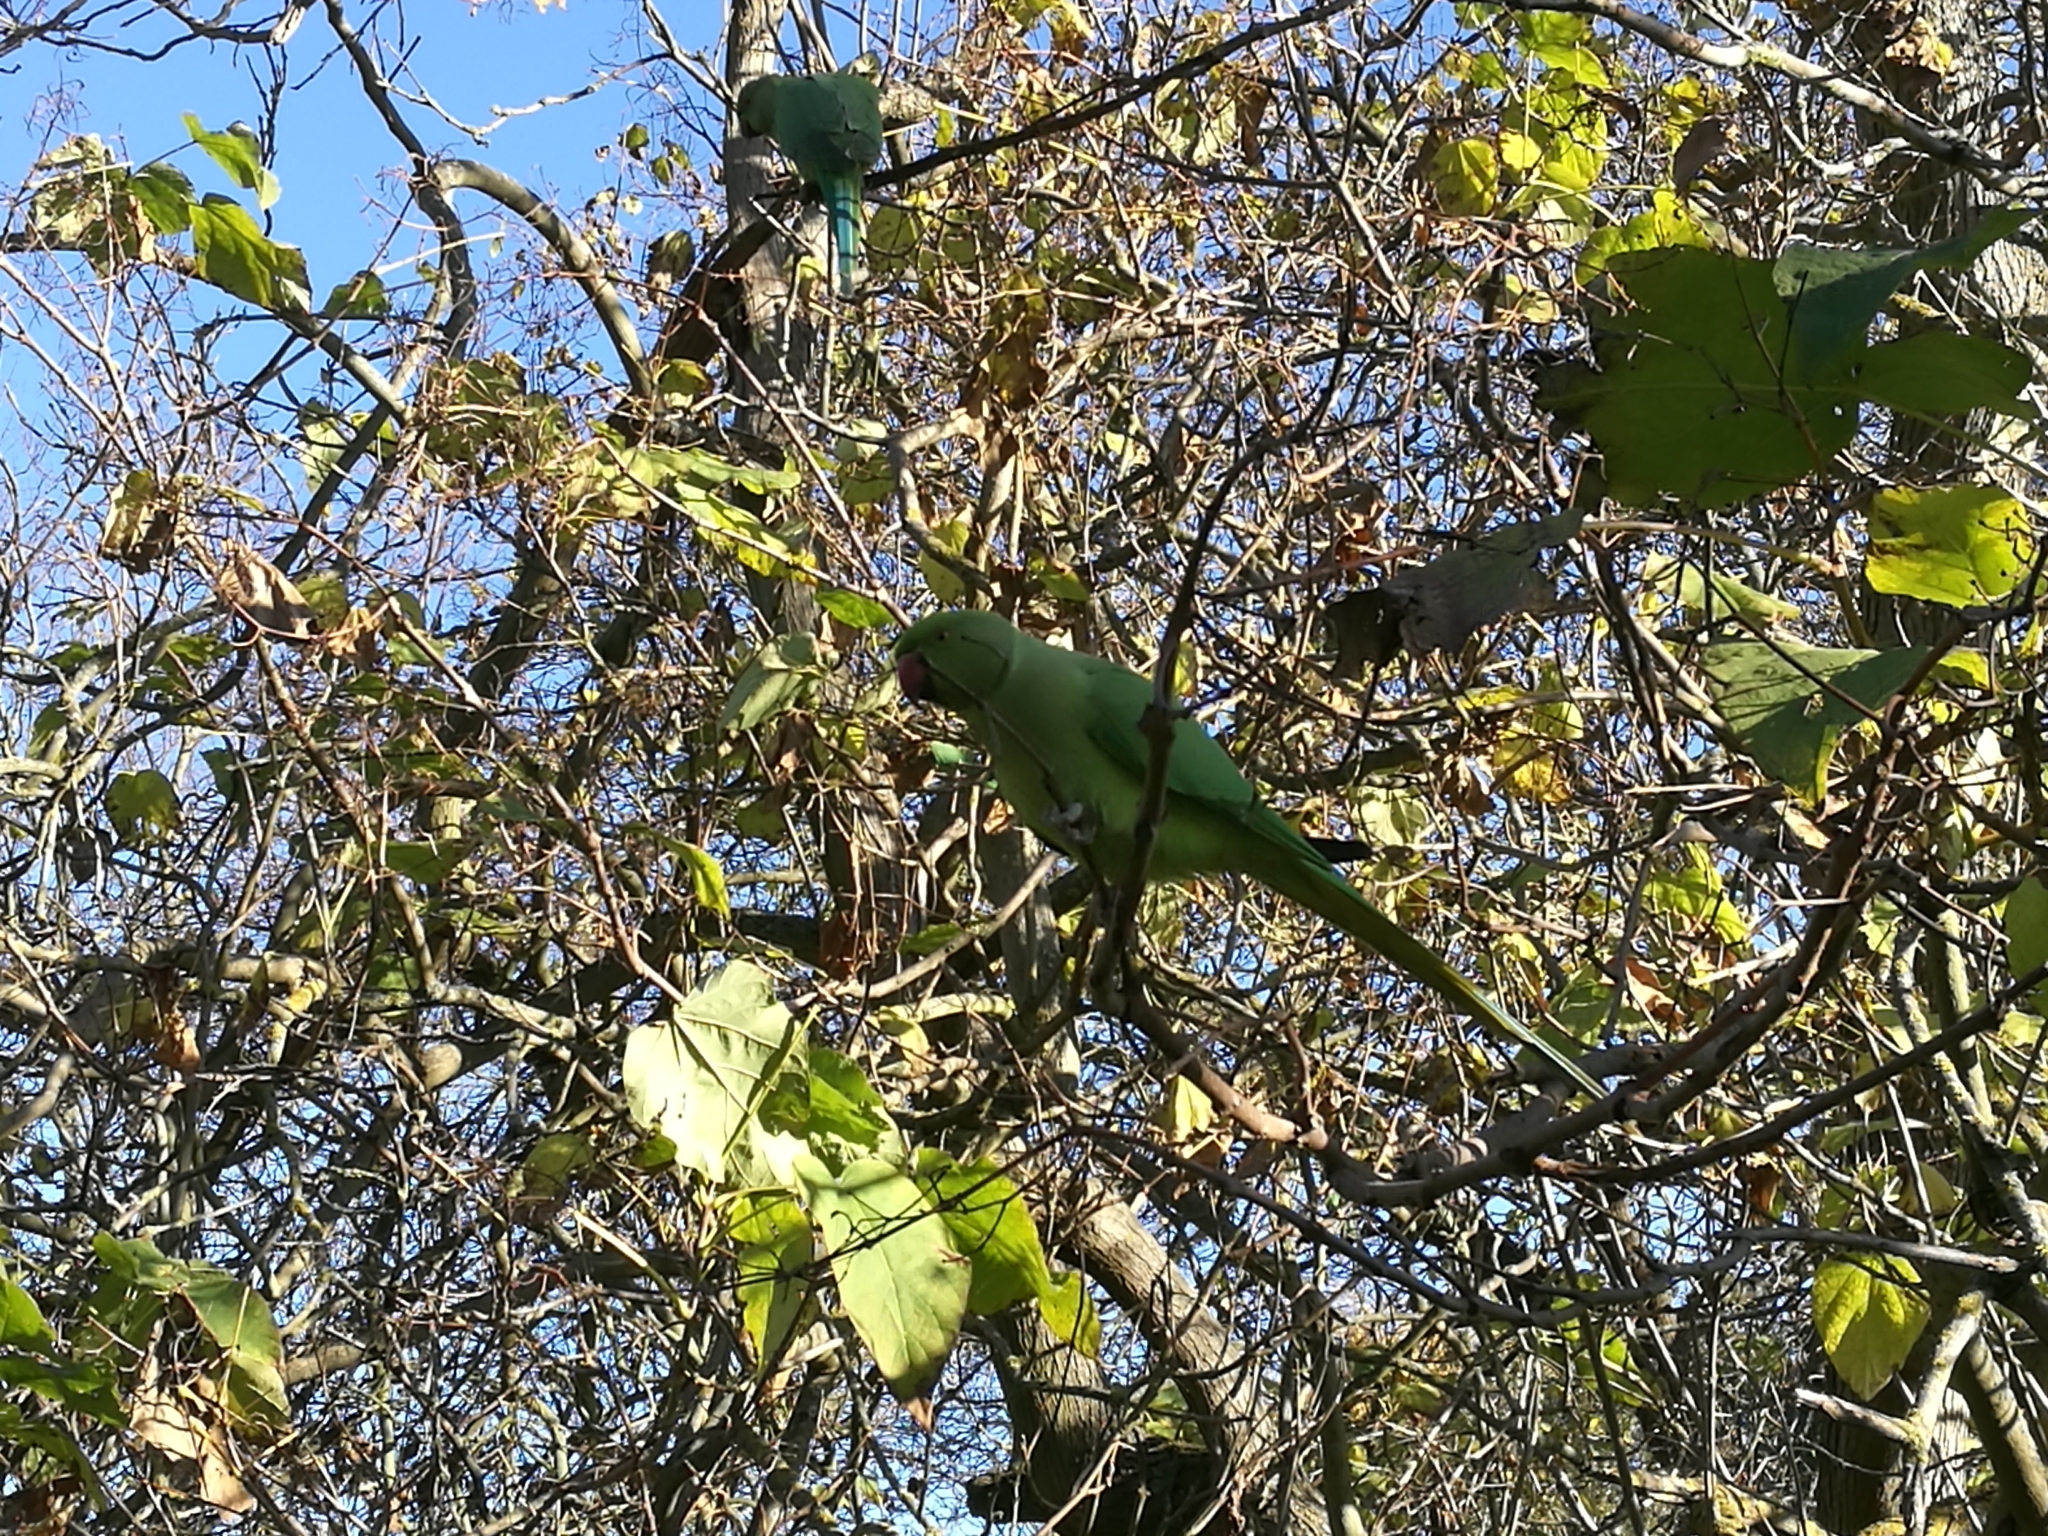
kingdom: Animalia
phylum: Chordata
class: Aves
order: Psittaciformes
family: Psittacidae
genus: Psittacula
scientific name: Psittacula krameri
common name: Rose-ringed parakeet
